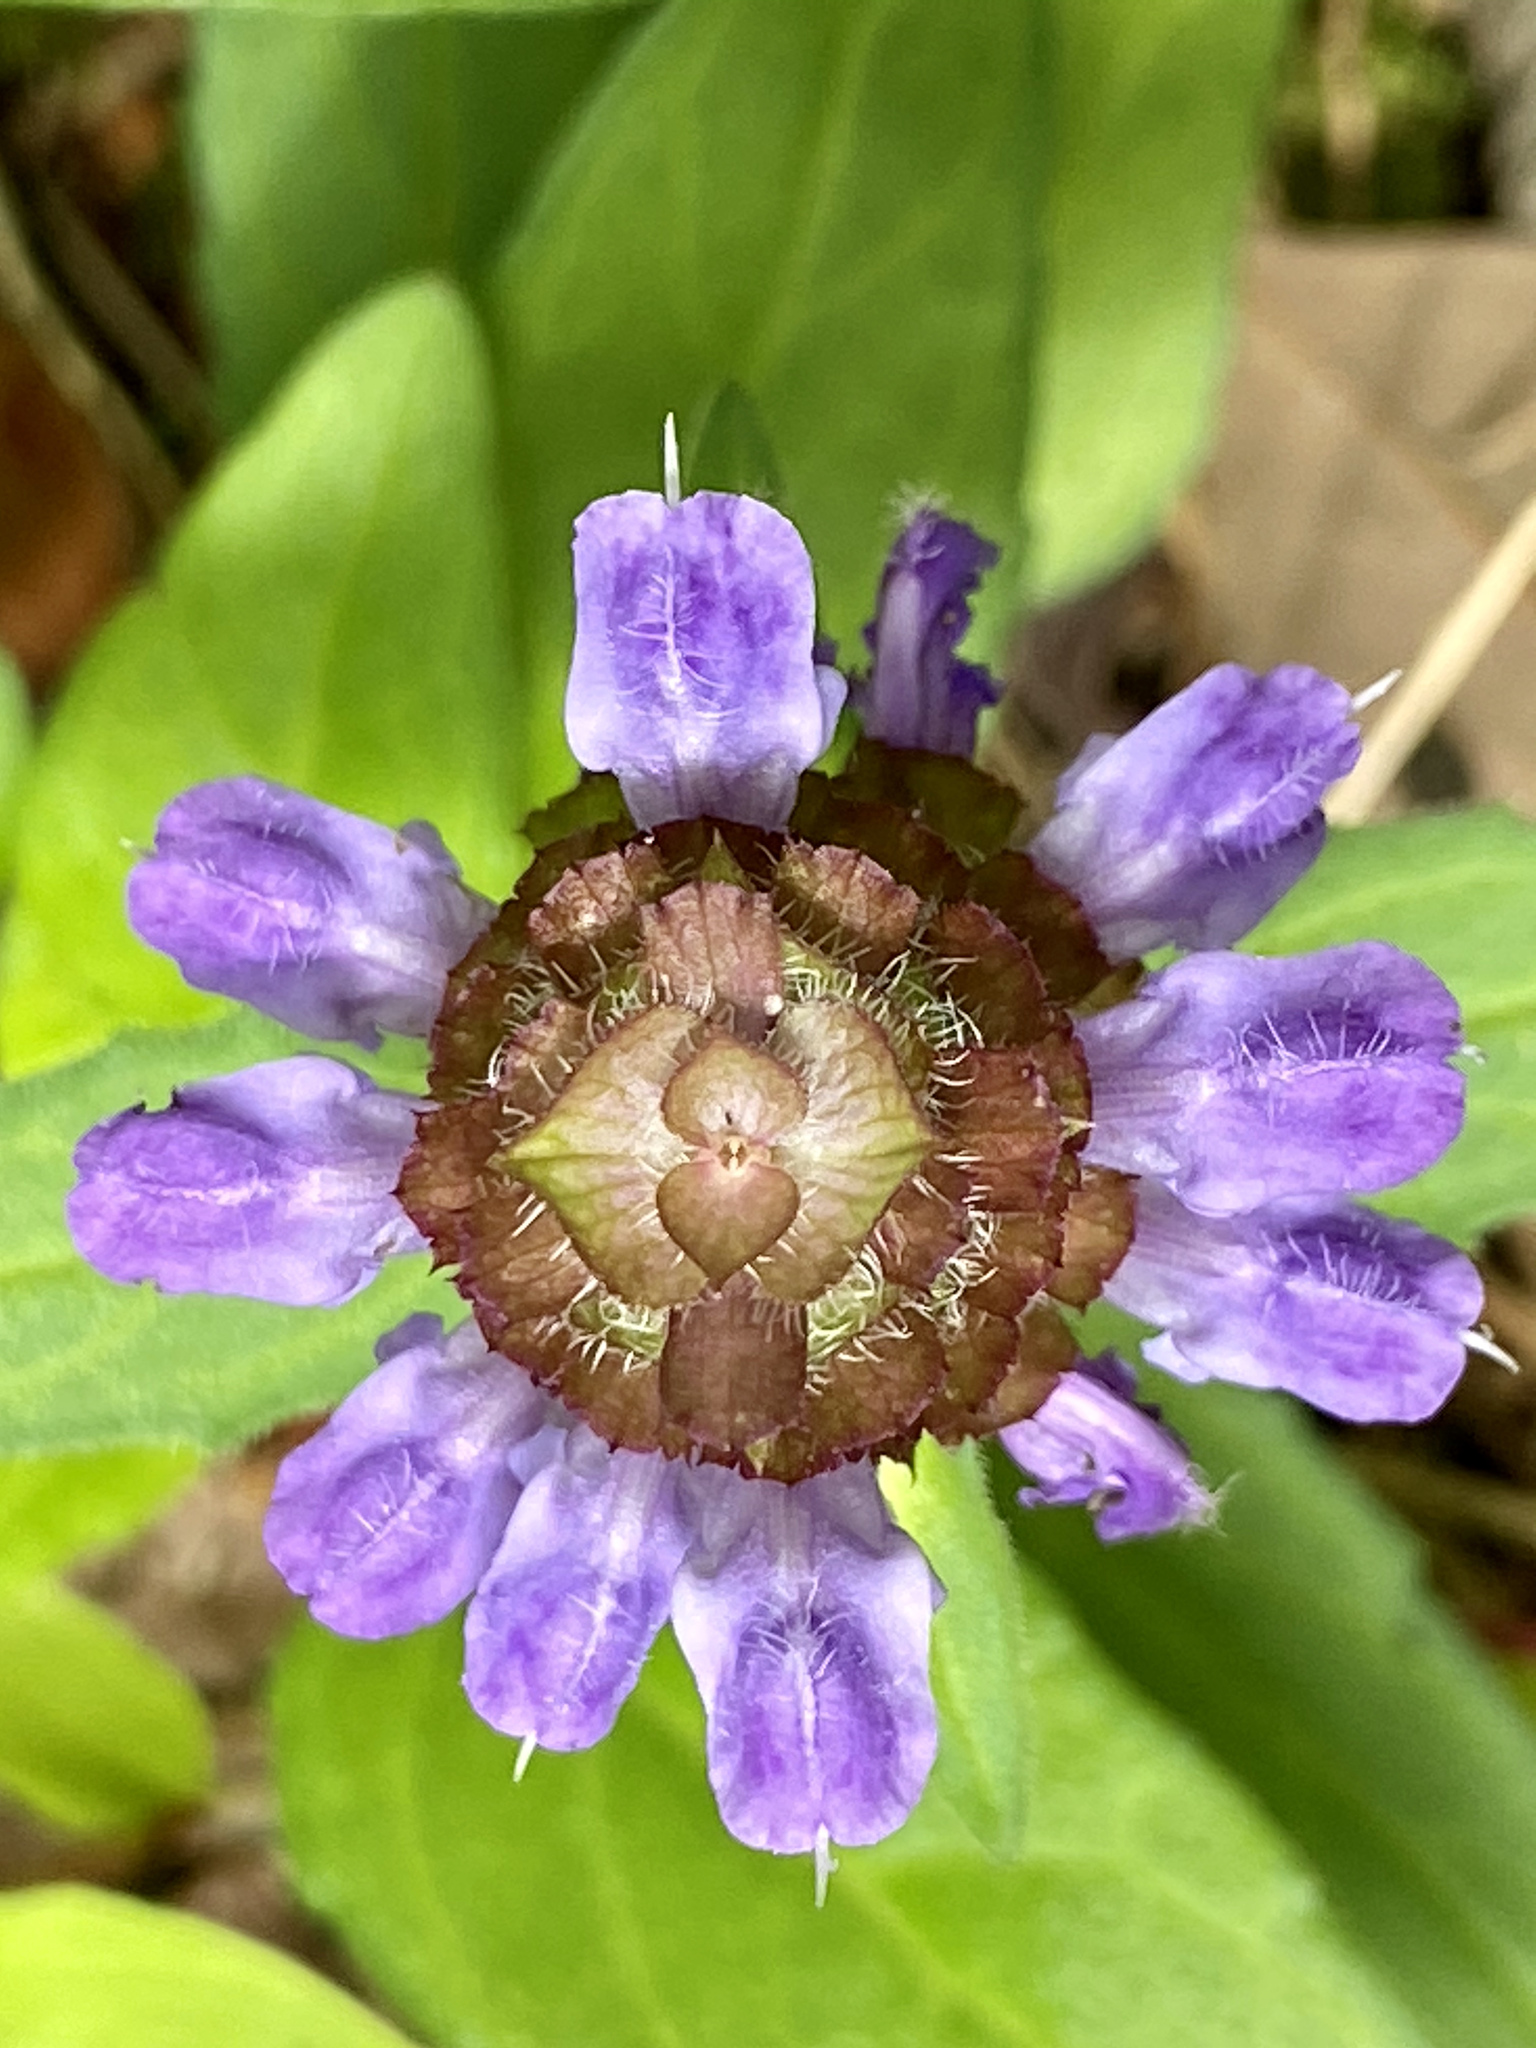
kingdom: Plantae
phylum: Tracheophyta
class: Magnoliopsida
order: Lamiales
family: Lamiaceae
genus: Prunella
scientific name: Prunella vulgaris
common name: Heal-all
